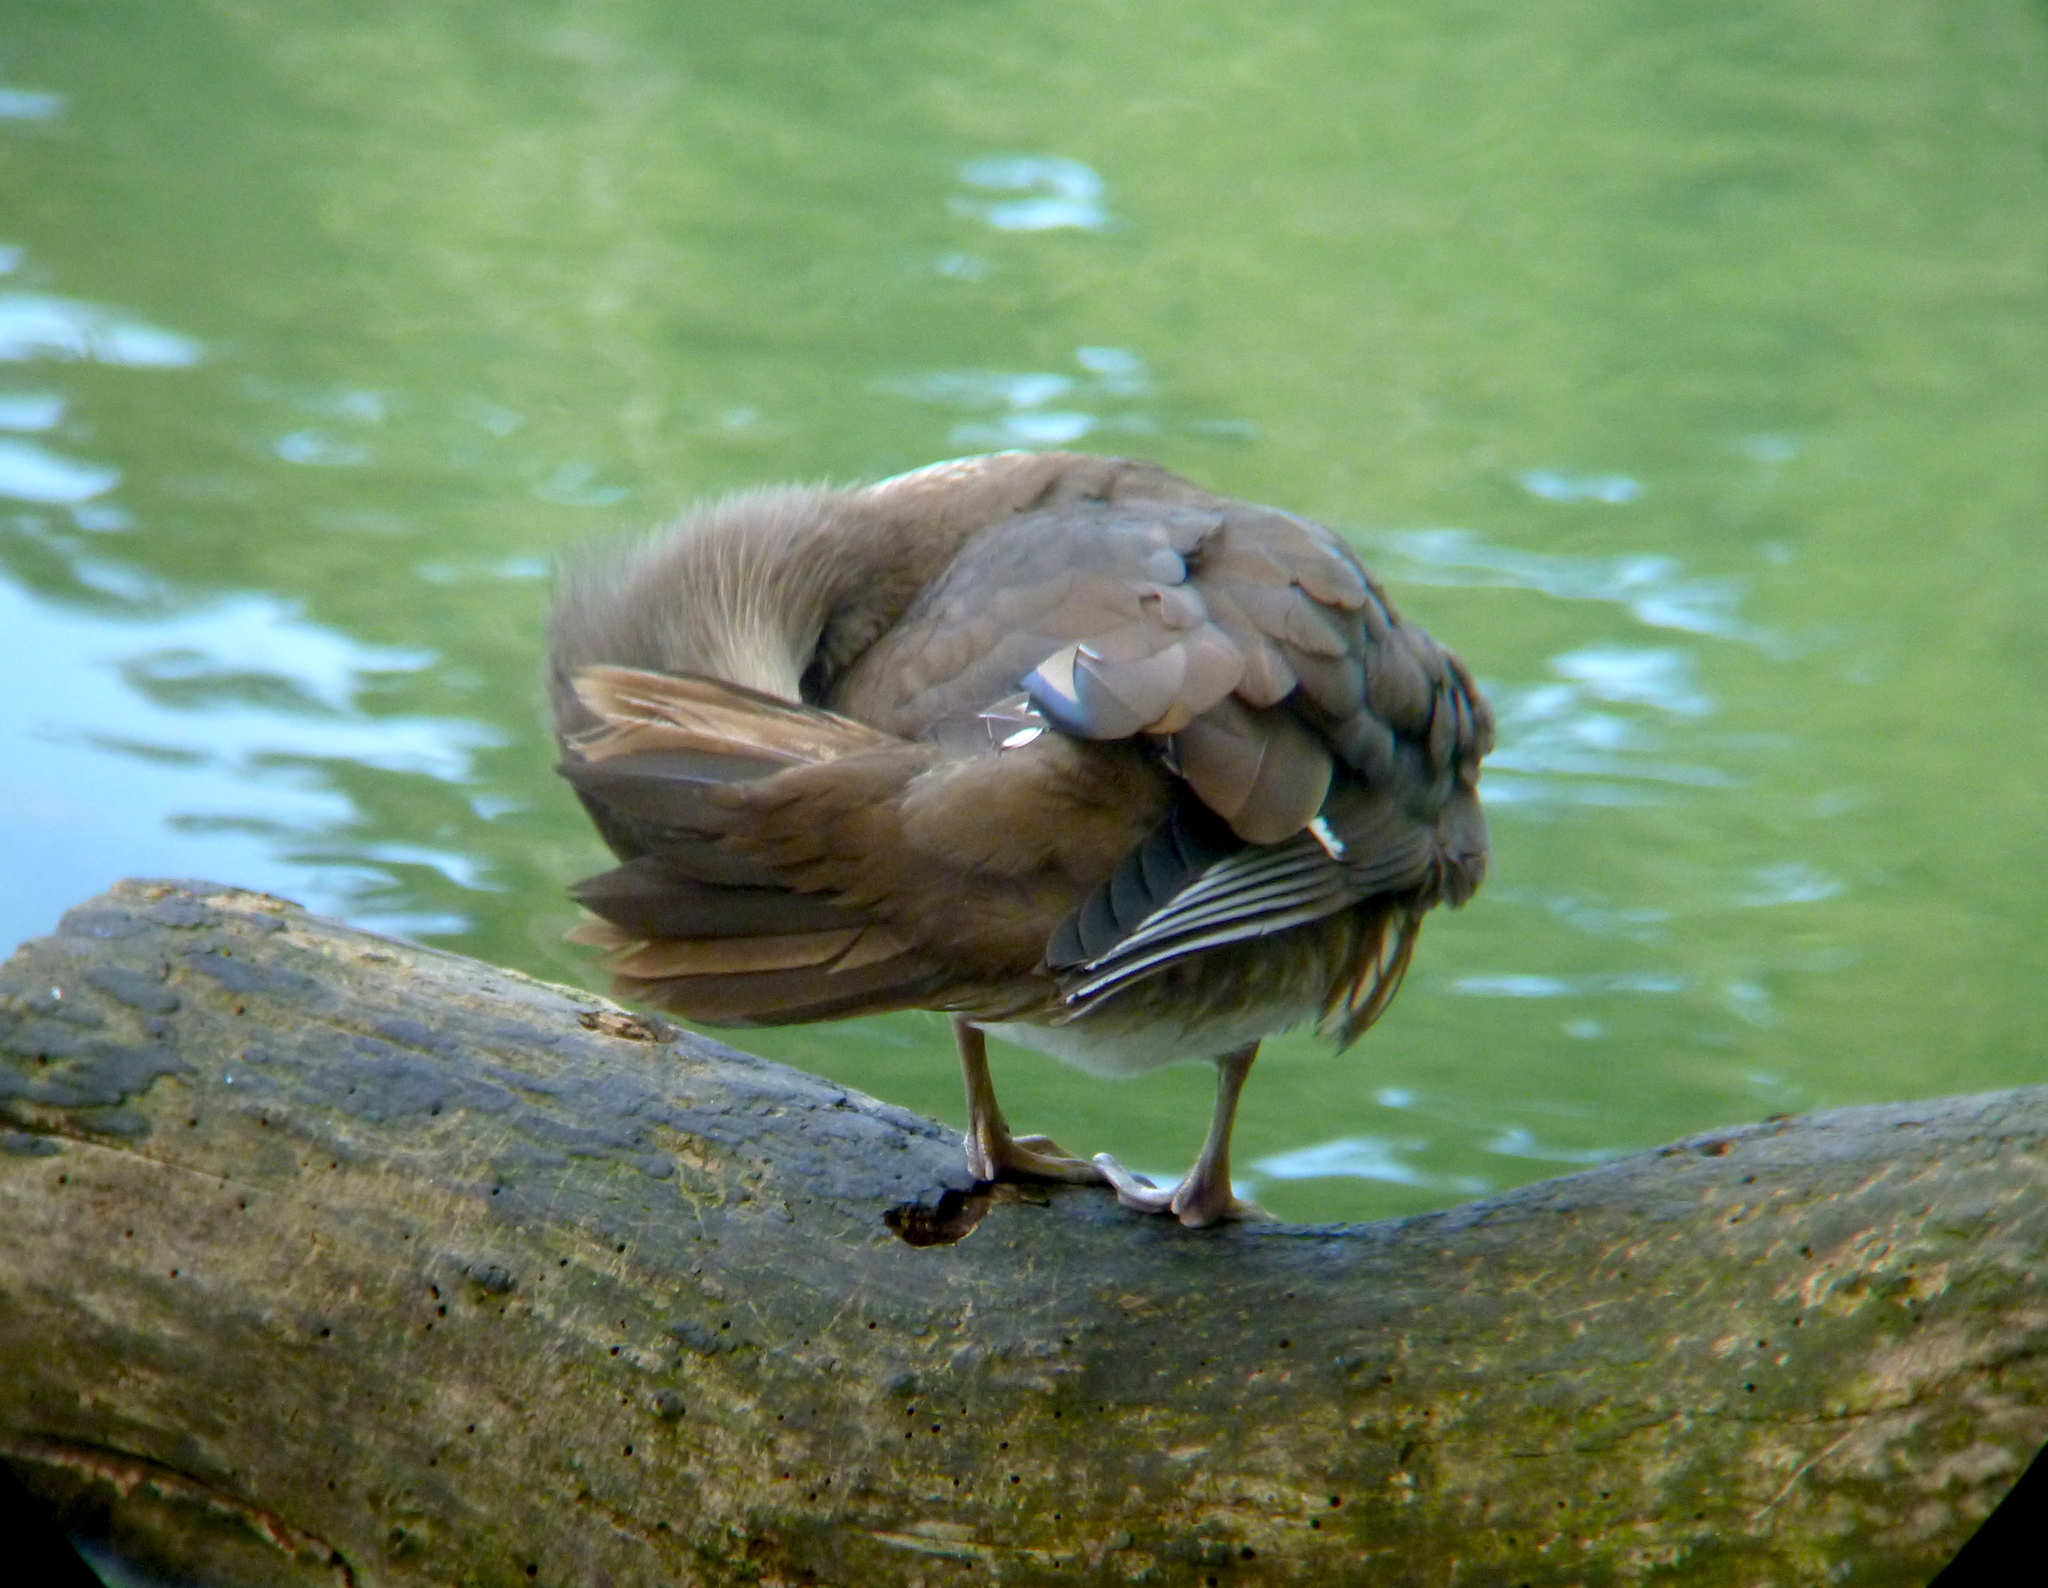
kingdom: Animalia
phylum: Chordata
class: Aves
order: Anseriformes
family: Anatidae
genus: Aix
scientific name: Aix galericulata
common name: Mandarin duck
